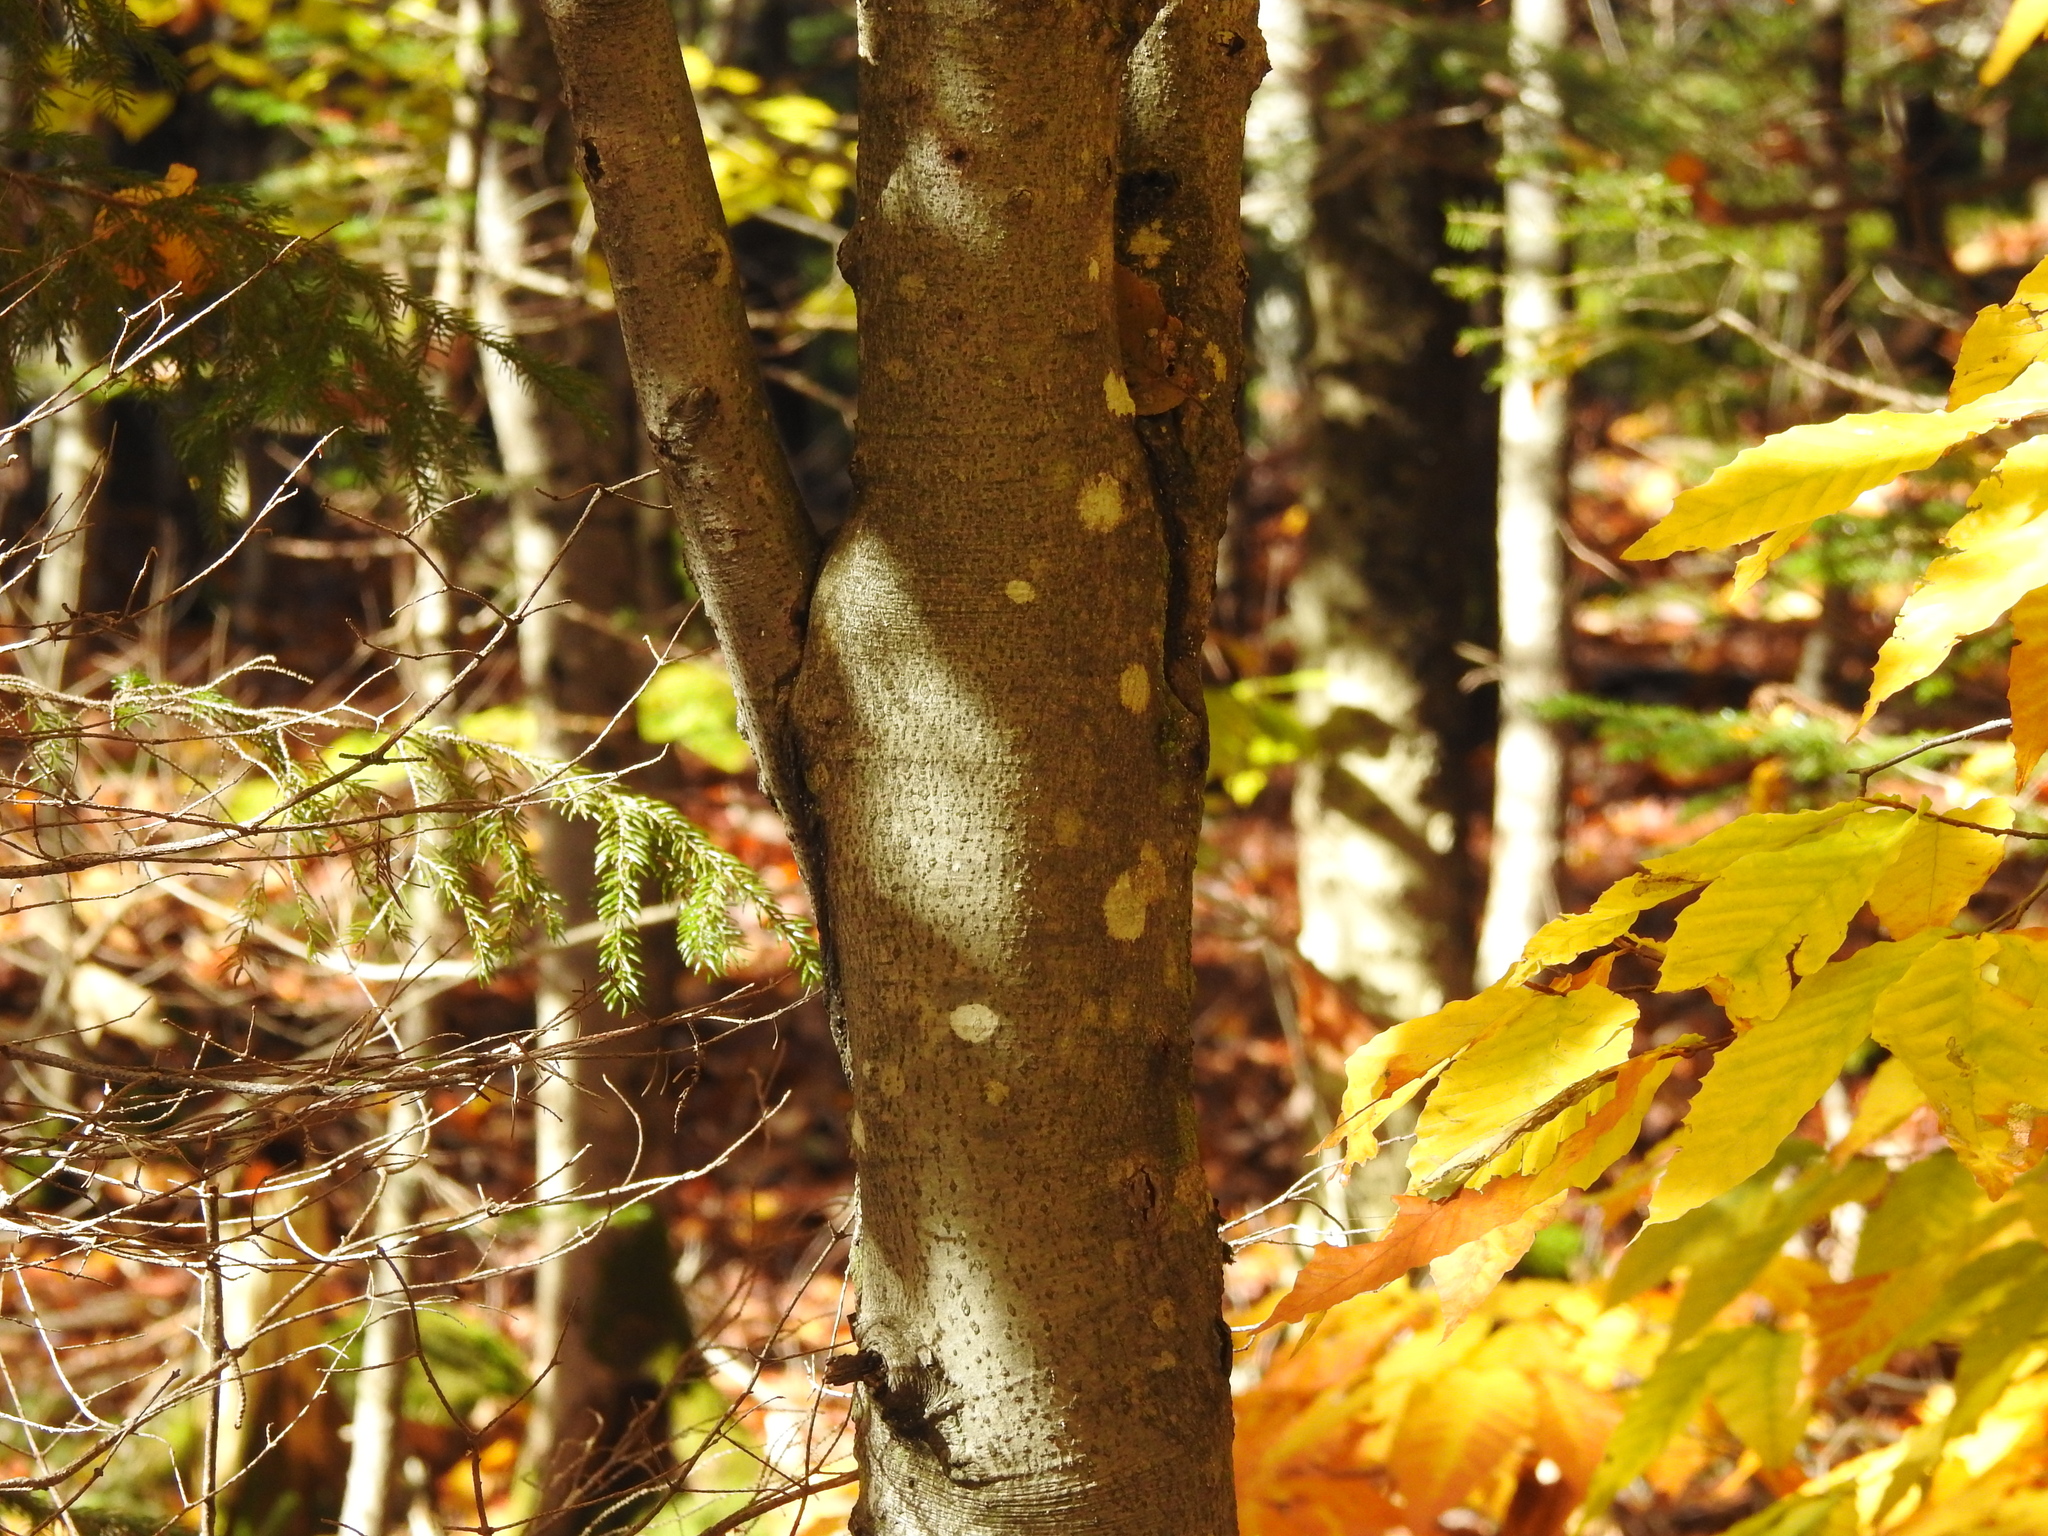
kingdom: Plantae
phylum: Tracheophyta
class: Magnoliopsida
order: Fagales
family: Fagaceae
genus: Fagus
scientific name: Fagus grandifolia
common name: American beech
